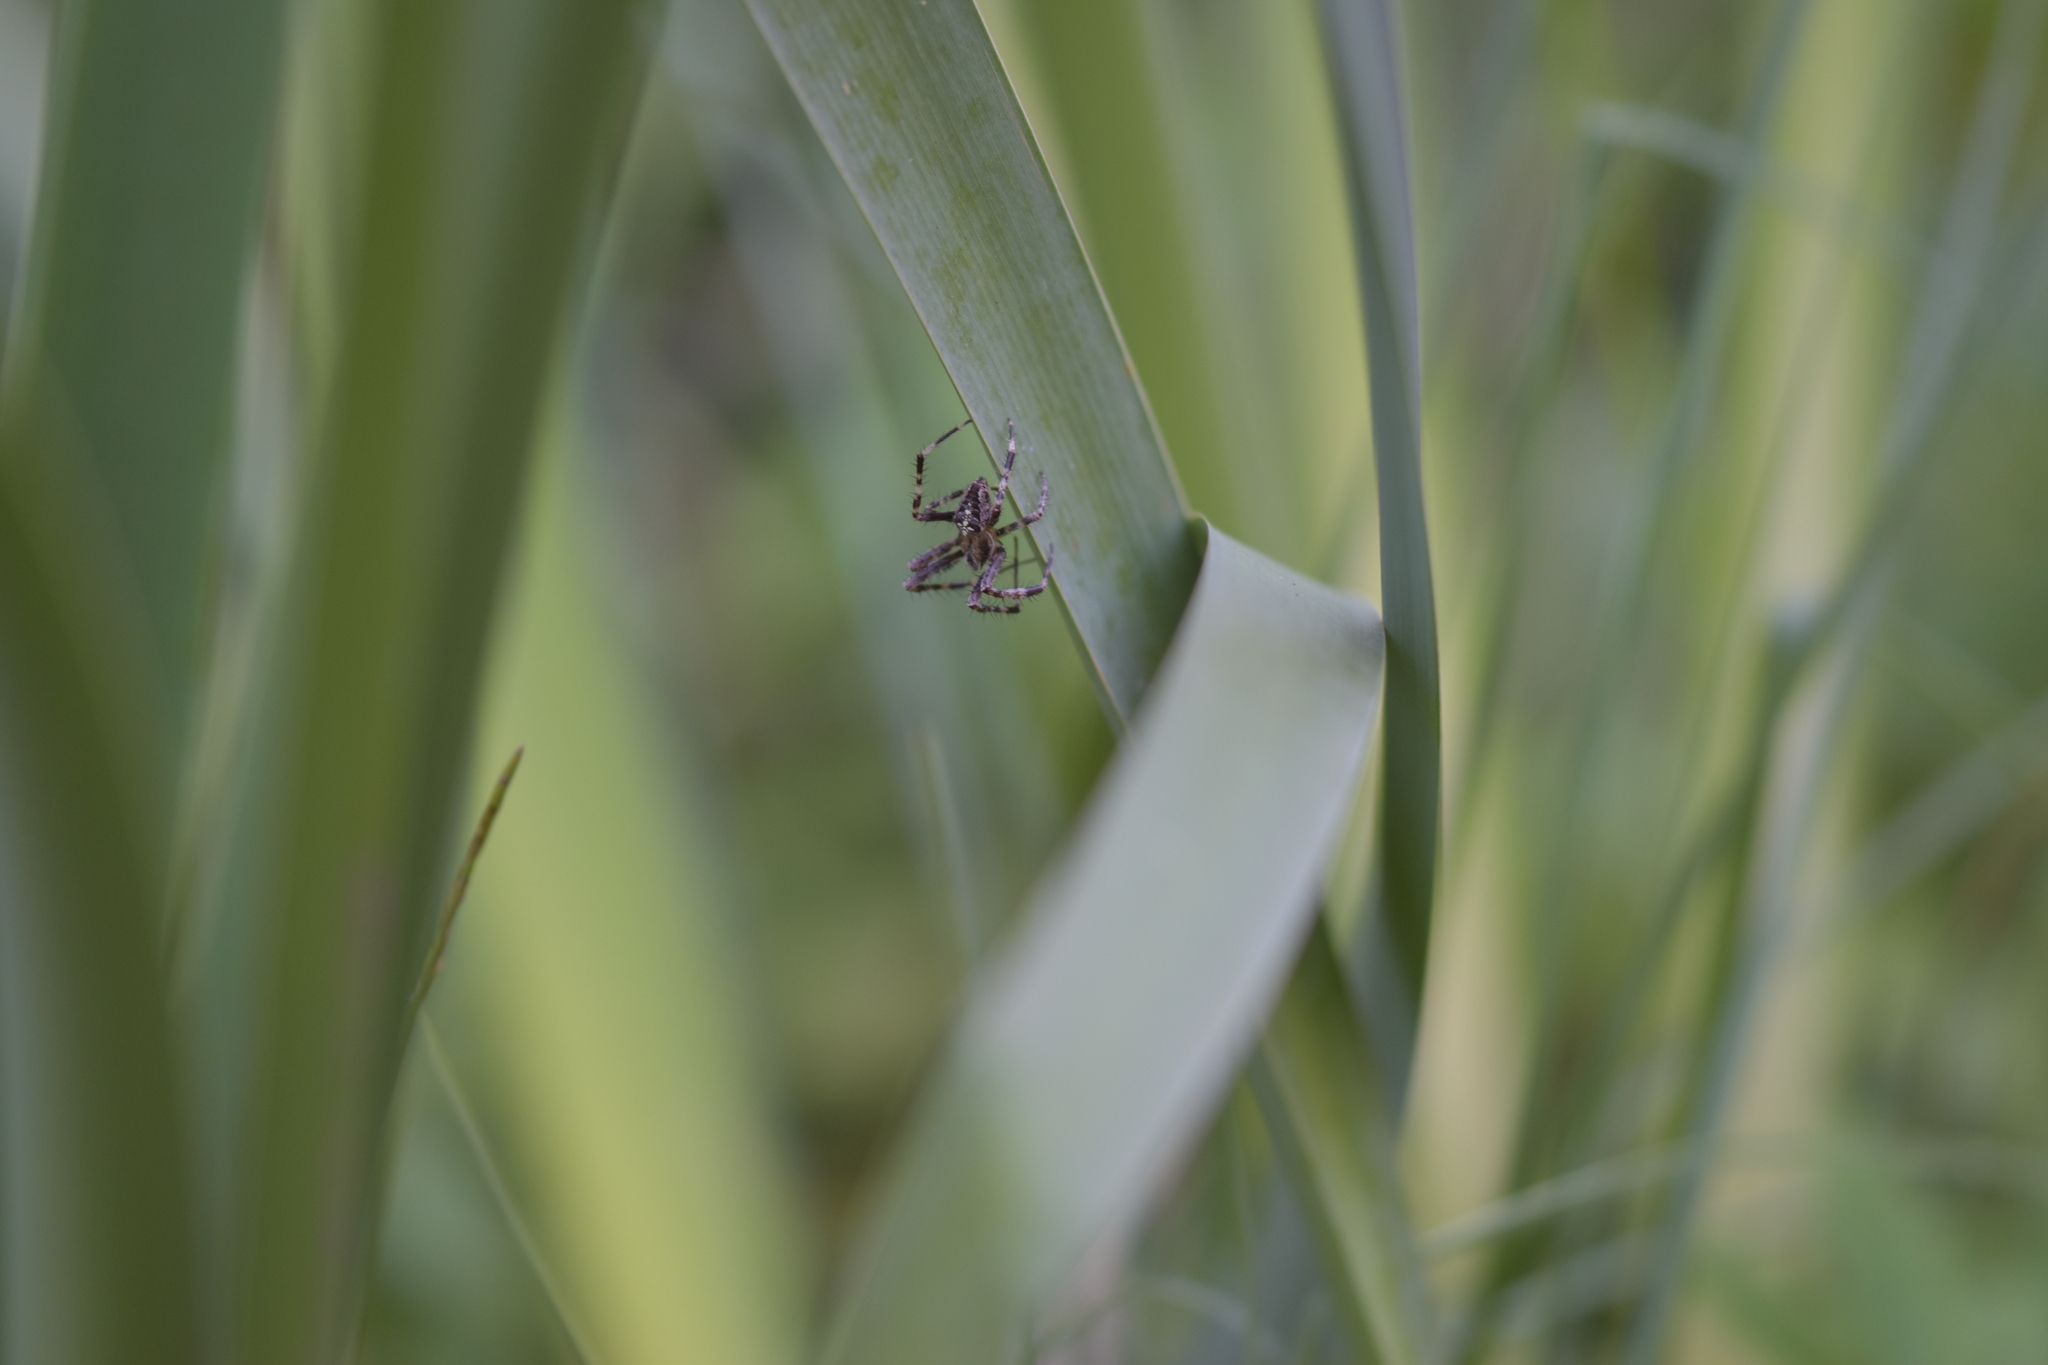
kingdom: Animalia
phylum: Arthropoda
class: Arachnida
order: Araneae
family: Araneidae
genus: Araneus
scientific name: Araneus diadematus
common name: Cross orbweaver
